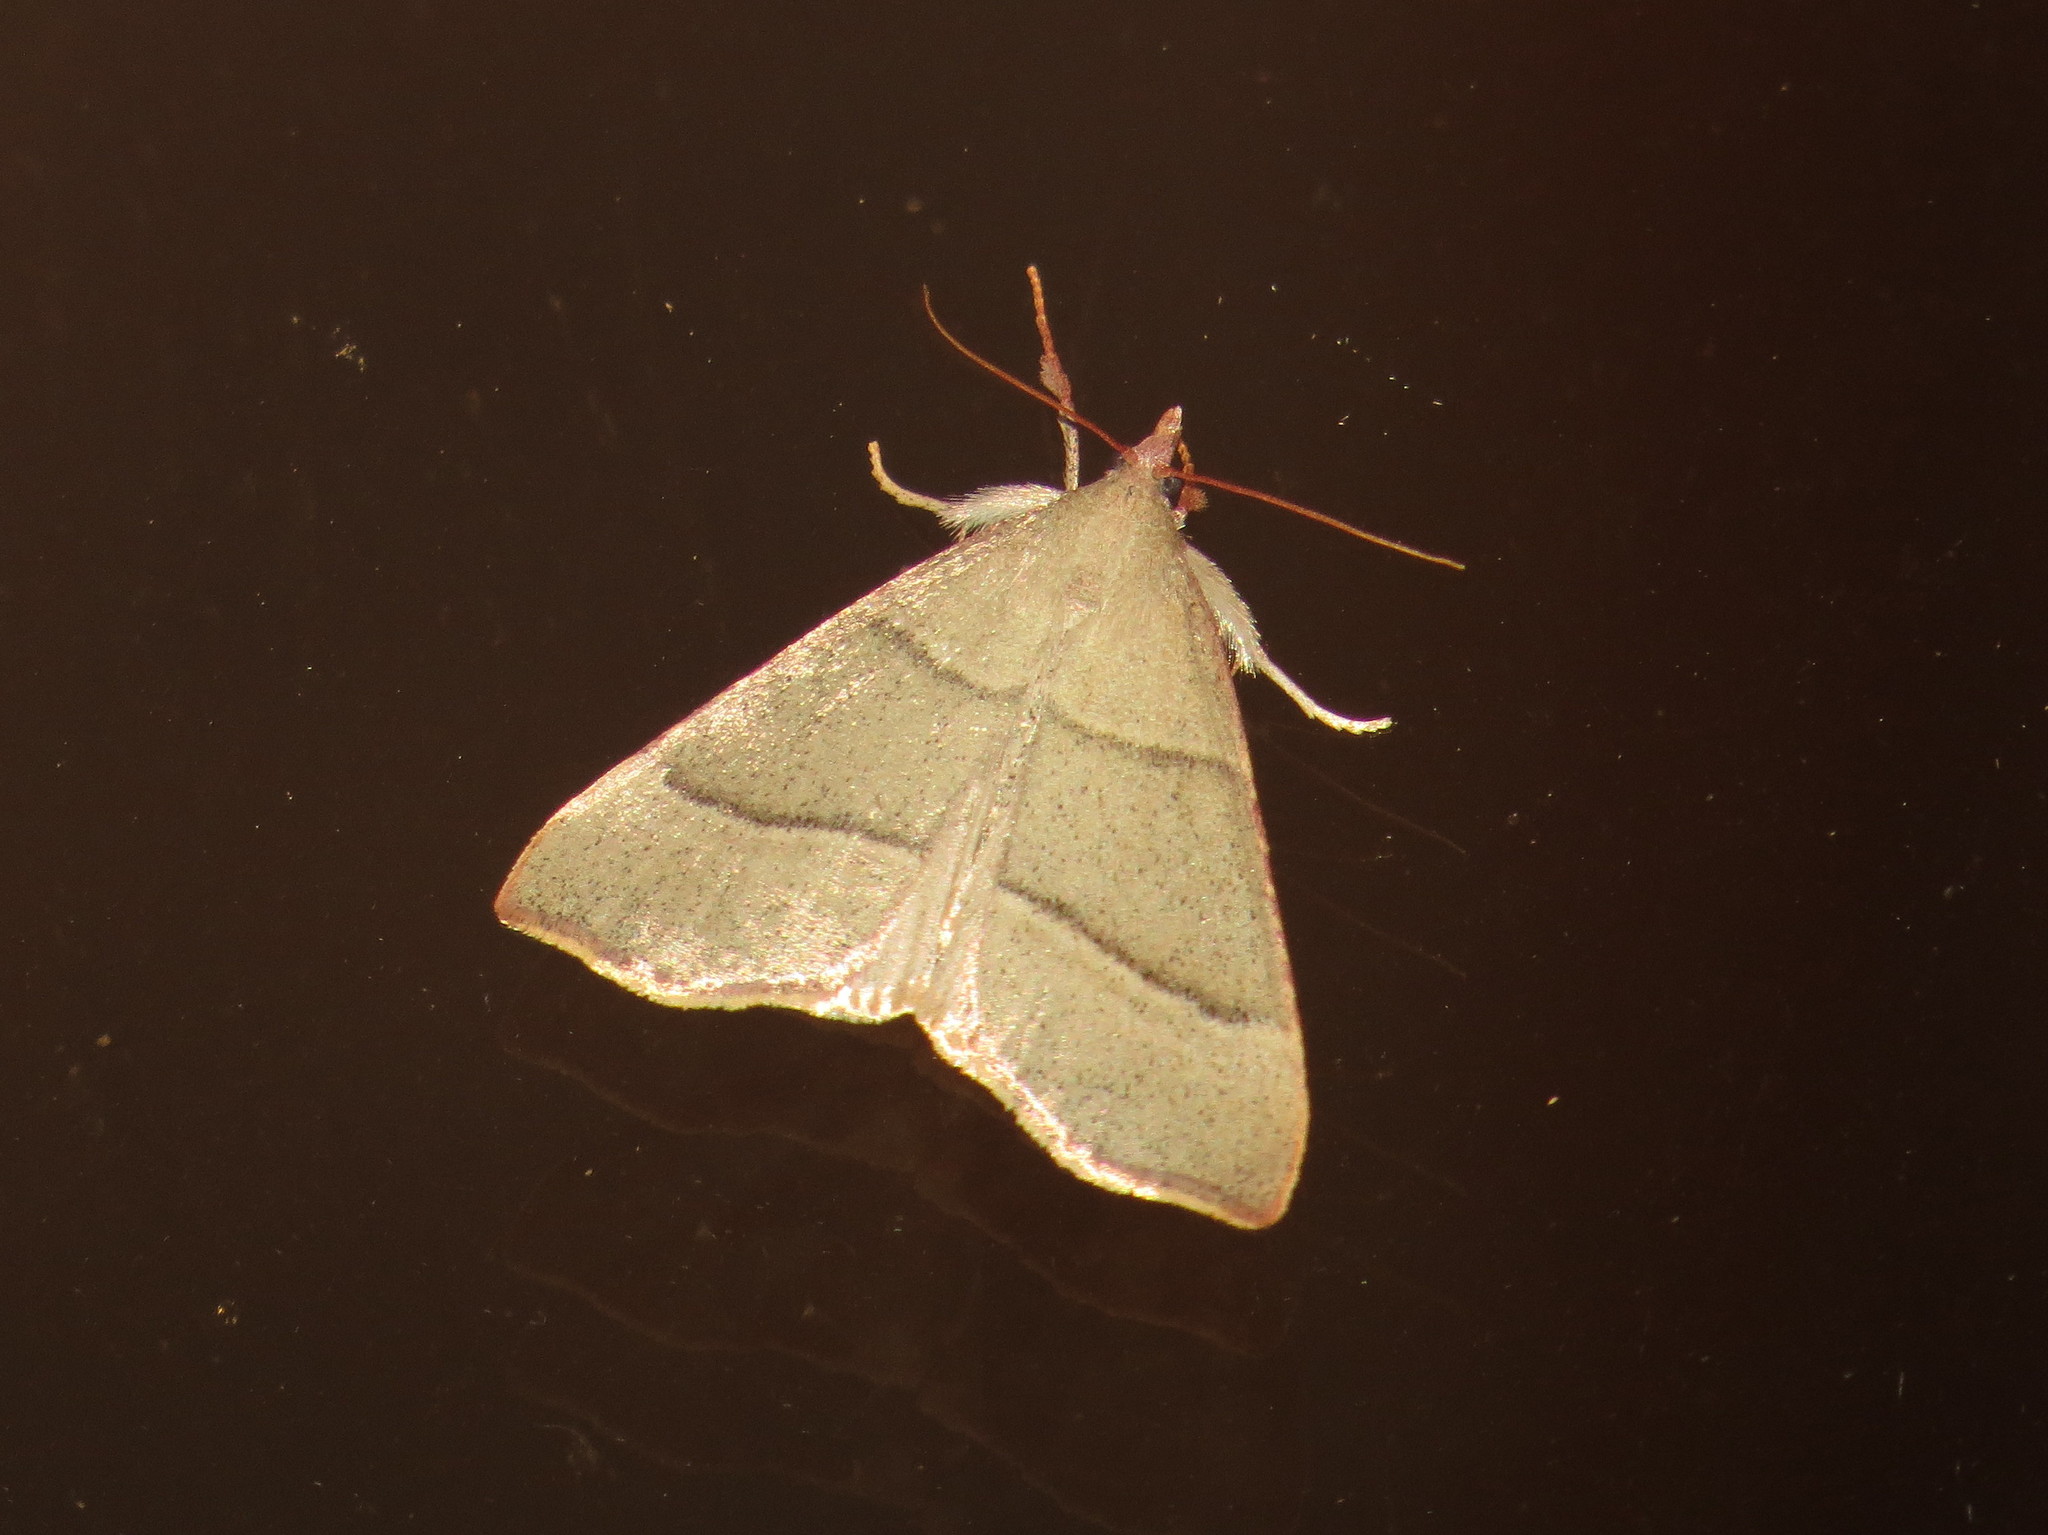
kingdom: Animalia
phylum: Arthropoda
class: Insecta
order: Lepidoptera
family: Pyralidae
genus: Hypsopygia
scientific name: Hypsopygia
